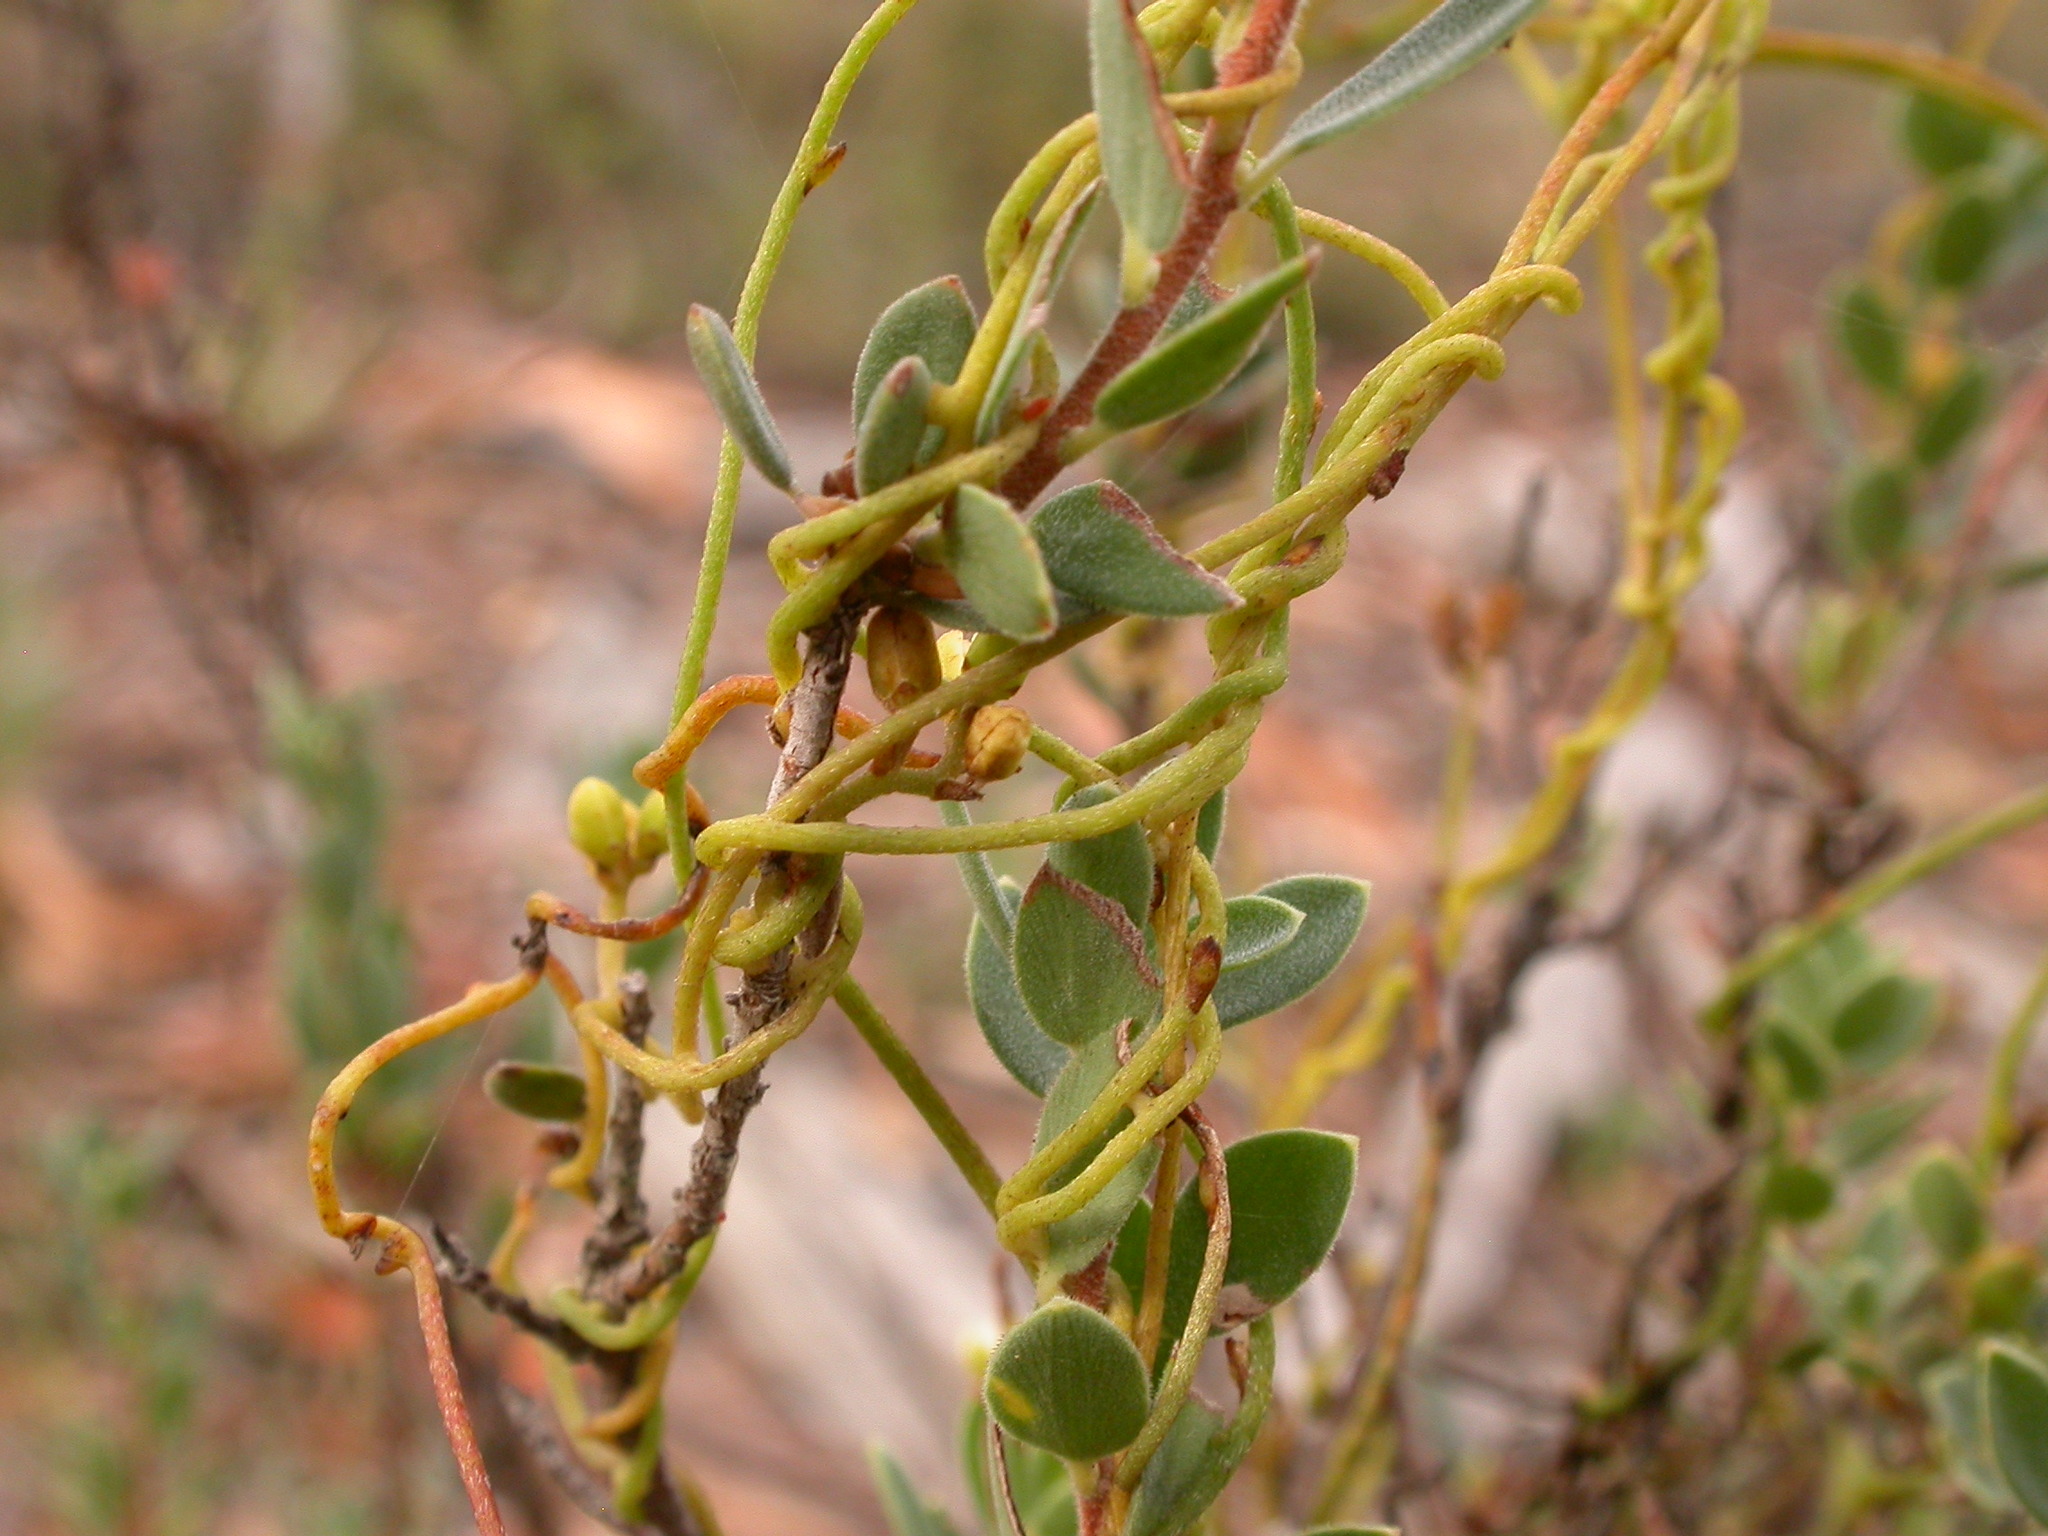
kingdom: Plantae
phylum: Tracheophyta
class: Magnoliopsida
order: Laurales
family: Lauraceae
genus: Cassytha
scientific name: Cassytha pubescens
